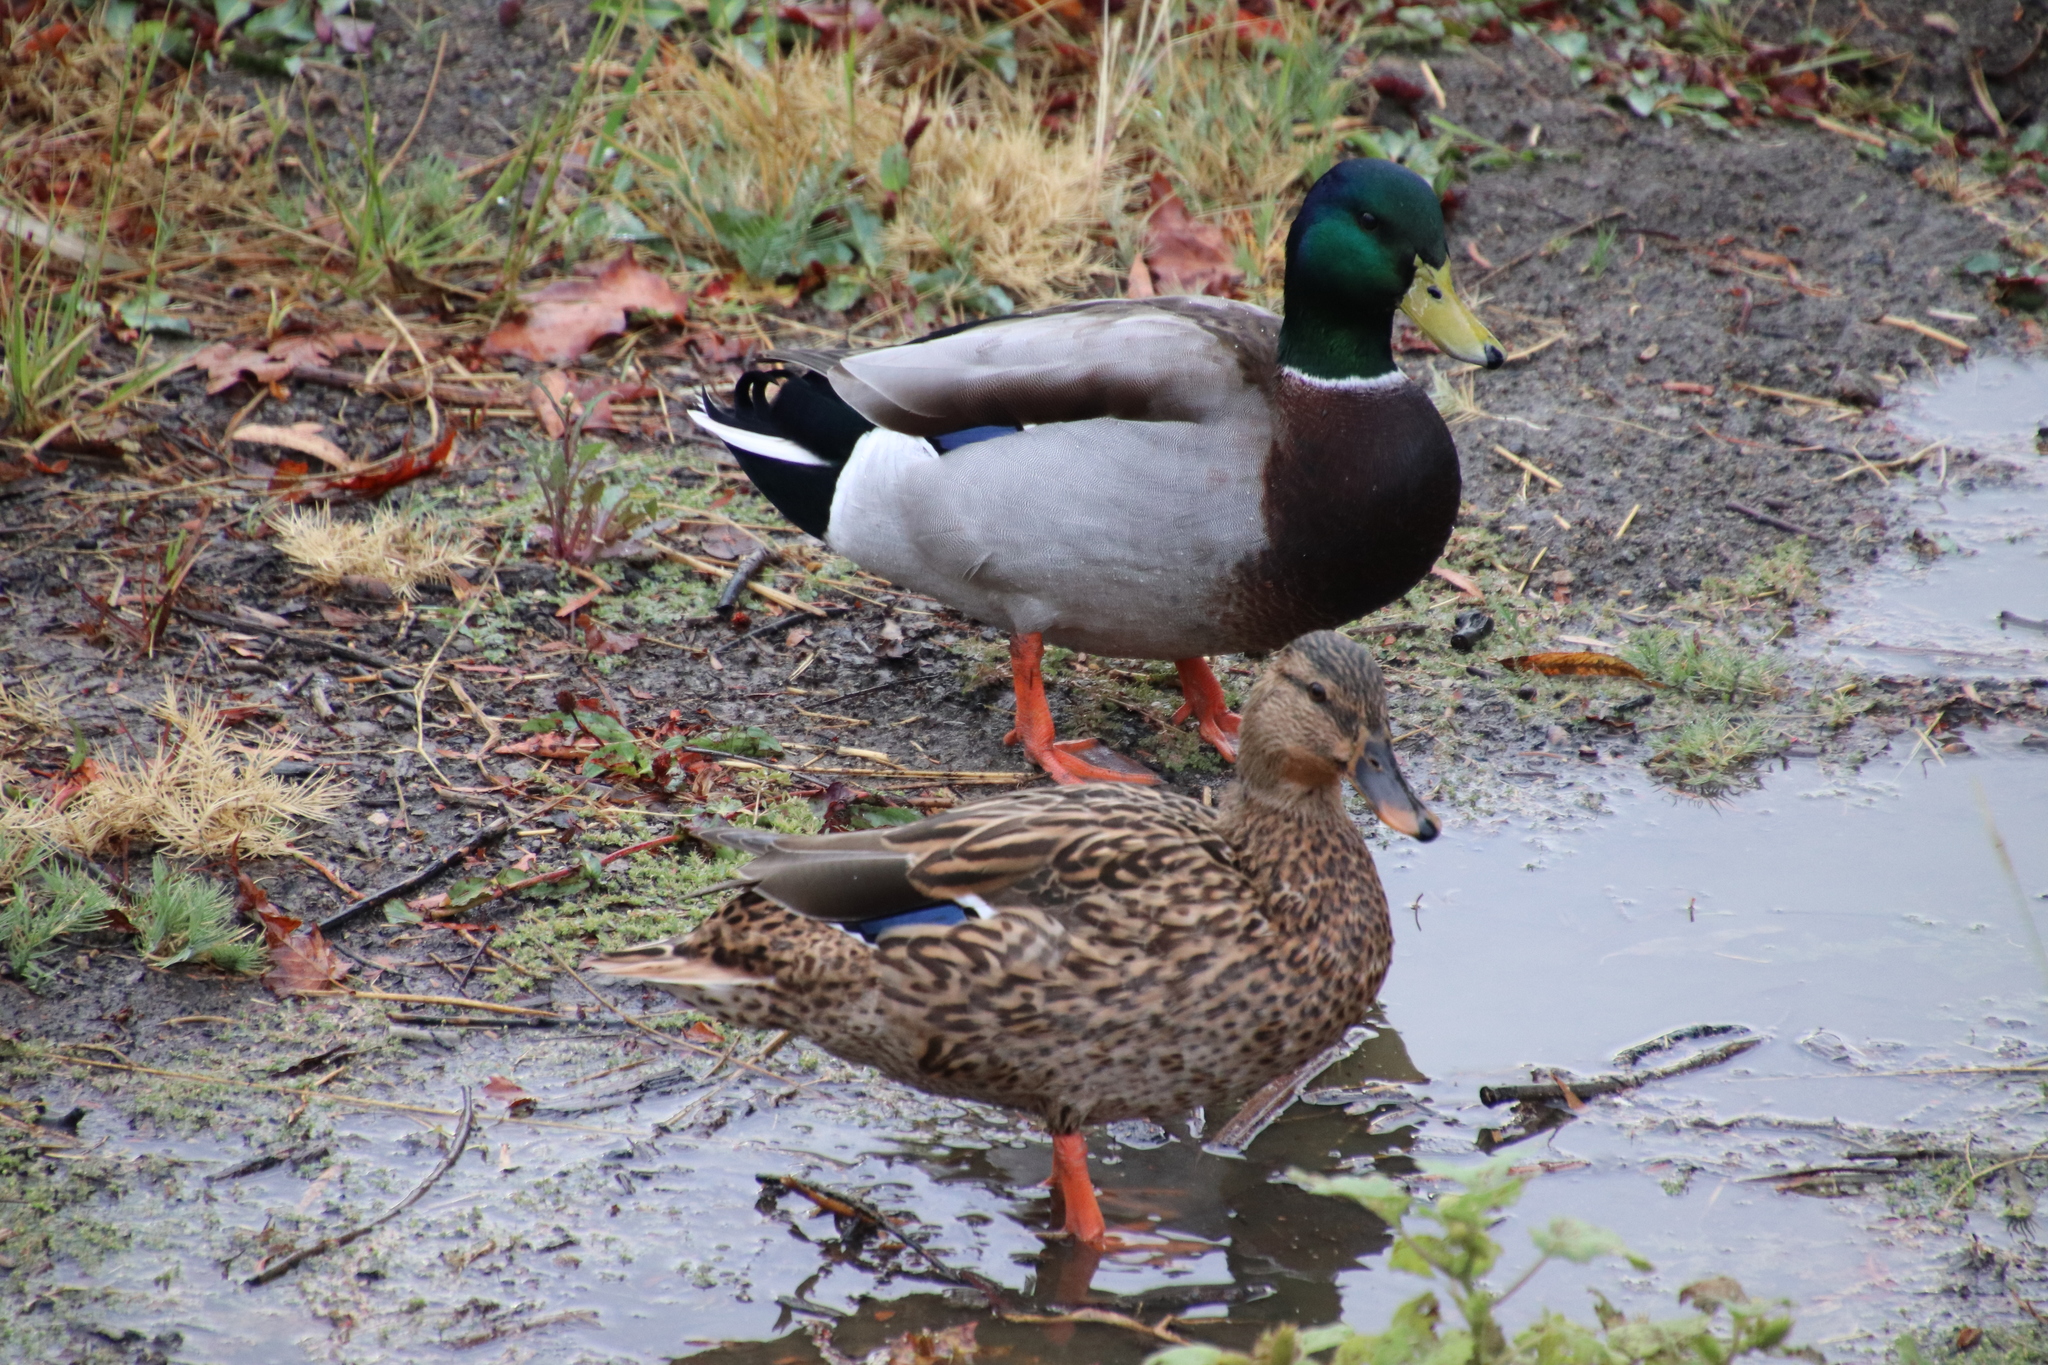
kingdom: Animalia
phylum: Chordata
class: Aves
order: Anseriformes
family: Anatidae
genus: Anas
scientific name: Anas platyrhynchos
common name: Mallard
